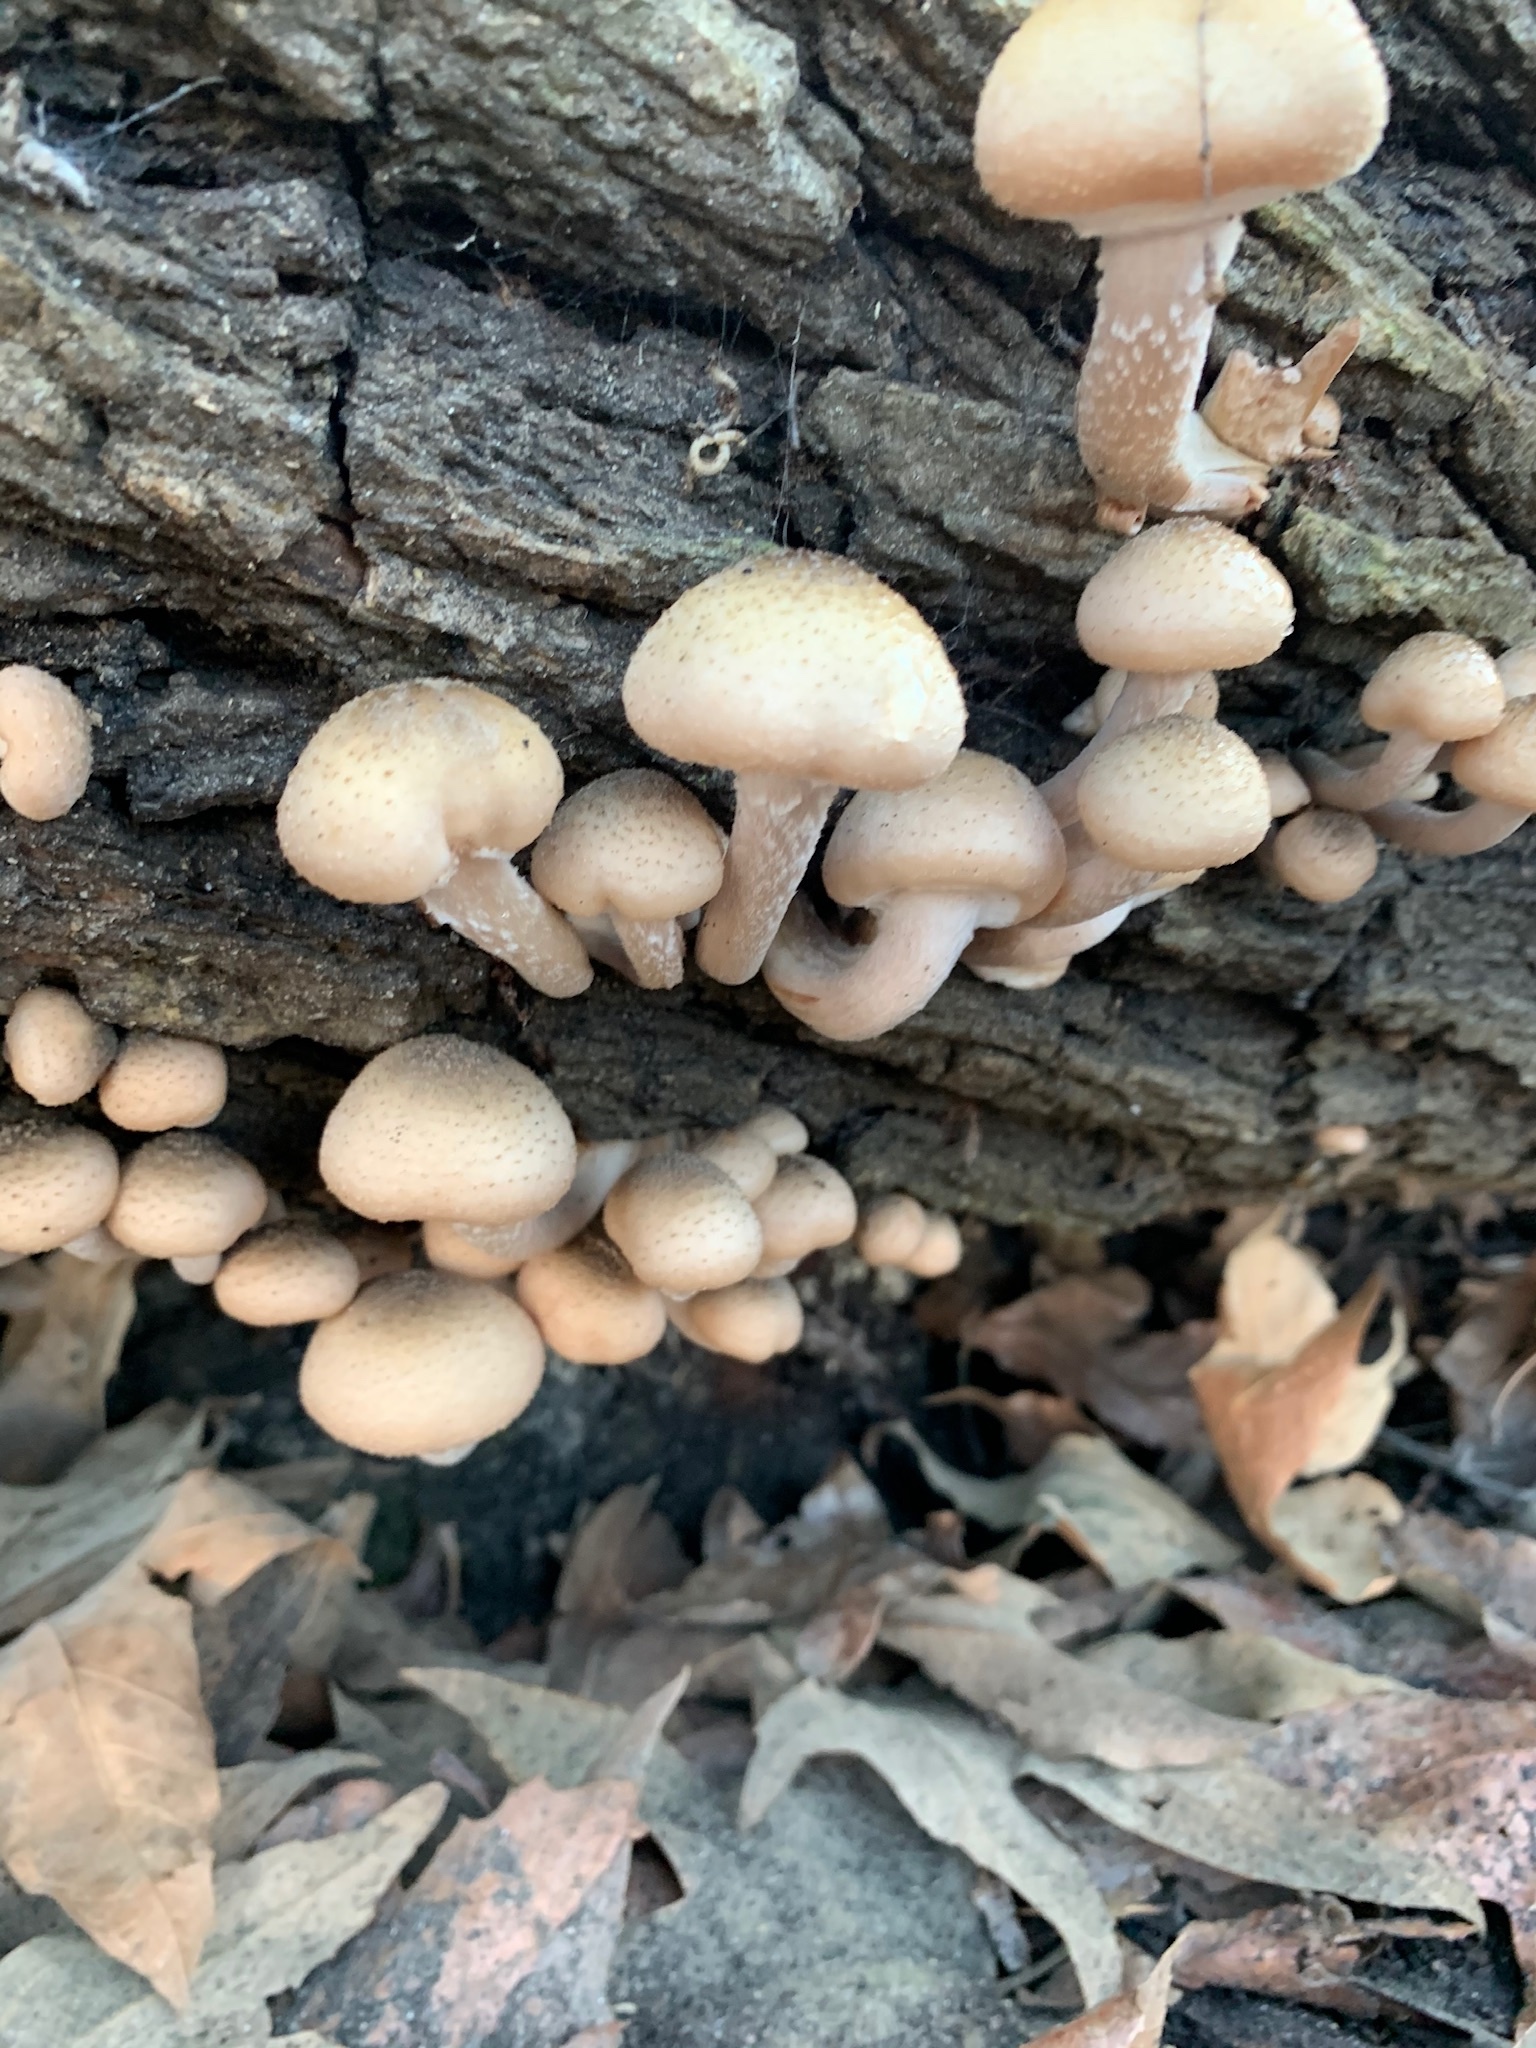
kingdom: Fungi
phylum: Basidiomycota
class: Agaricomycetes
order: Agaricales
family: Physalacriaceae
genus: Armillaria
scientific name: Armillaria mellea
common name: Honey fungus
